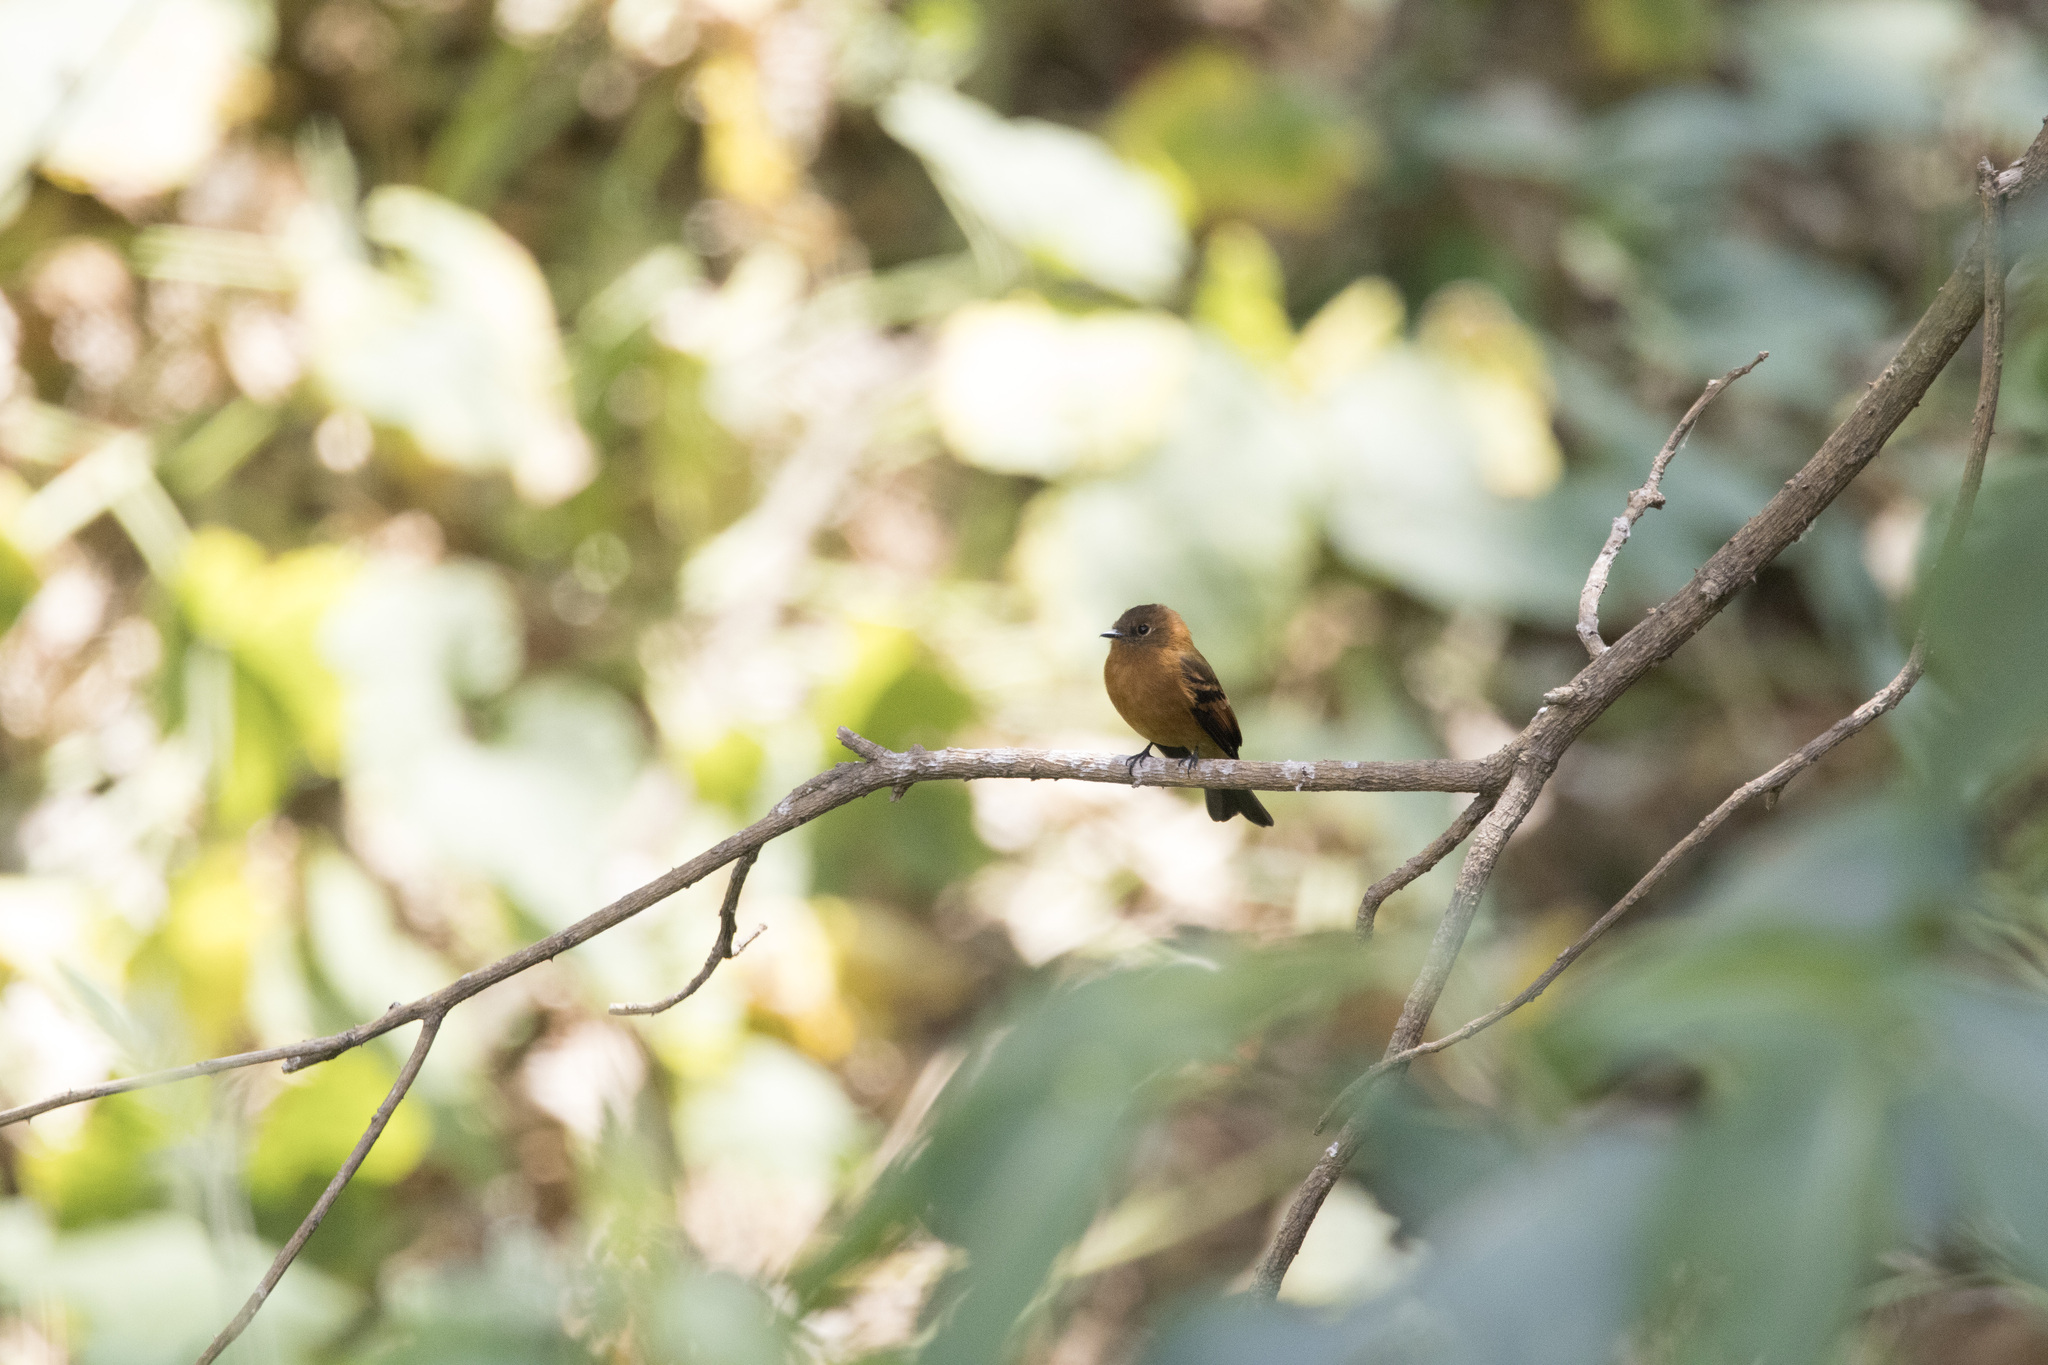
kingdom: Animalia
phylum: Chordata
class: Aves
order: Passeriformes
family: Tyrannidae
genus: Pyrrhomyias
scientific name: Pyrrhomyias cinnamomeus
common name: Cinnamon flycatcher
